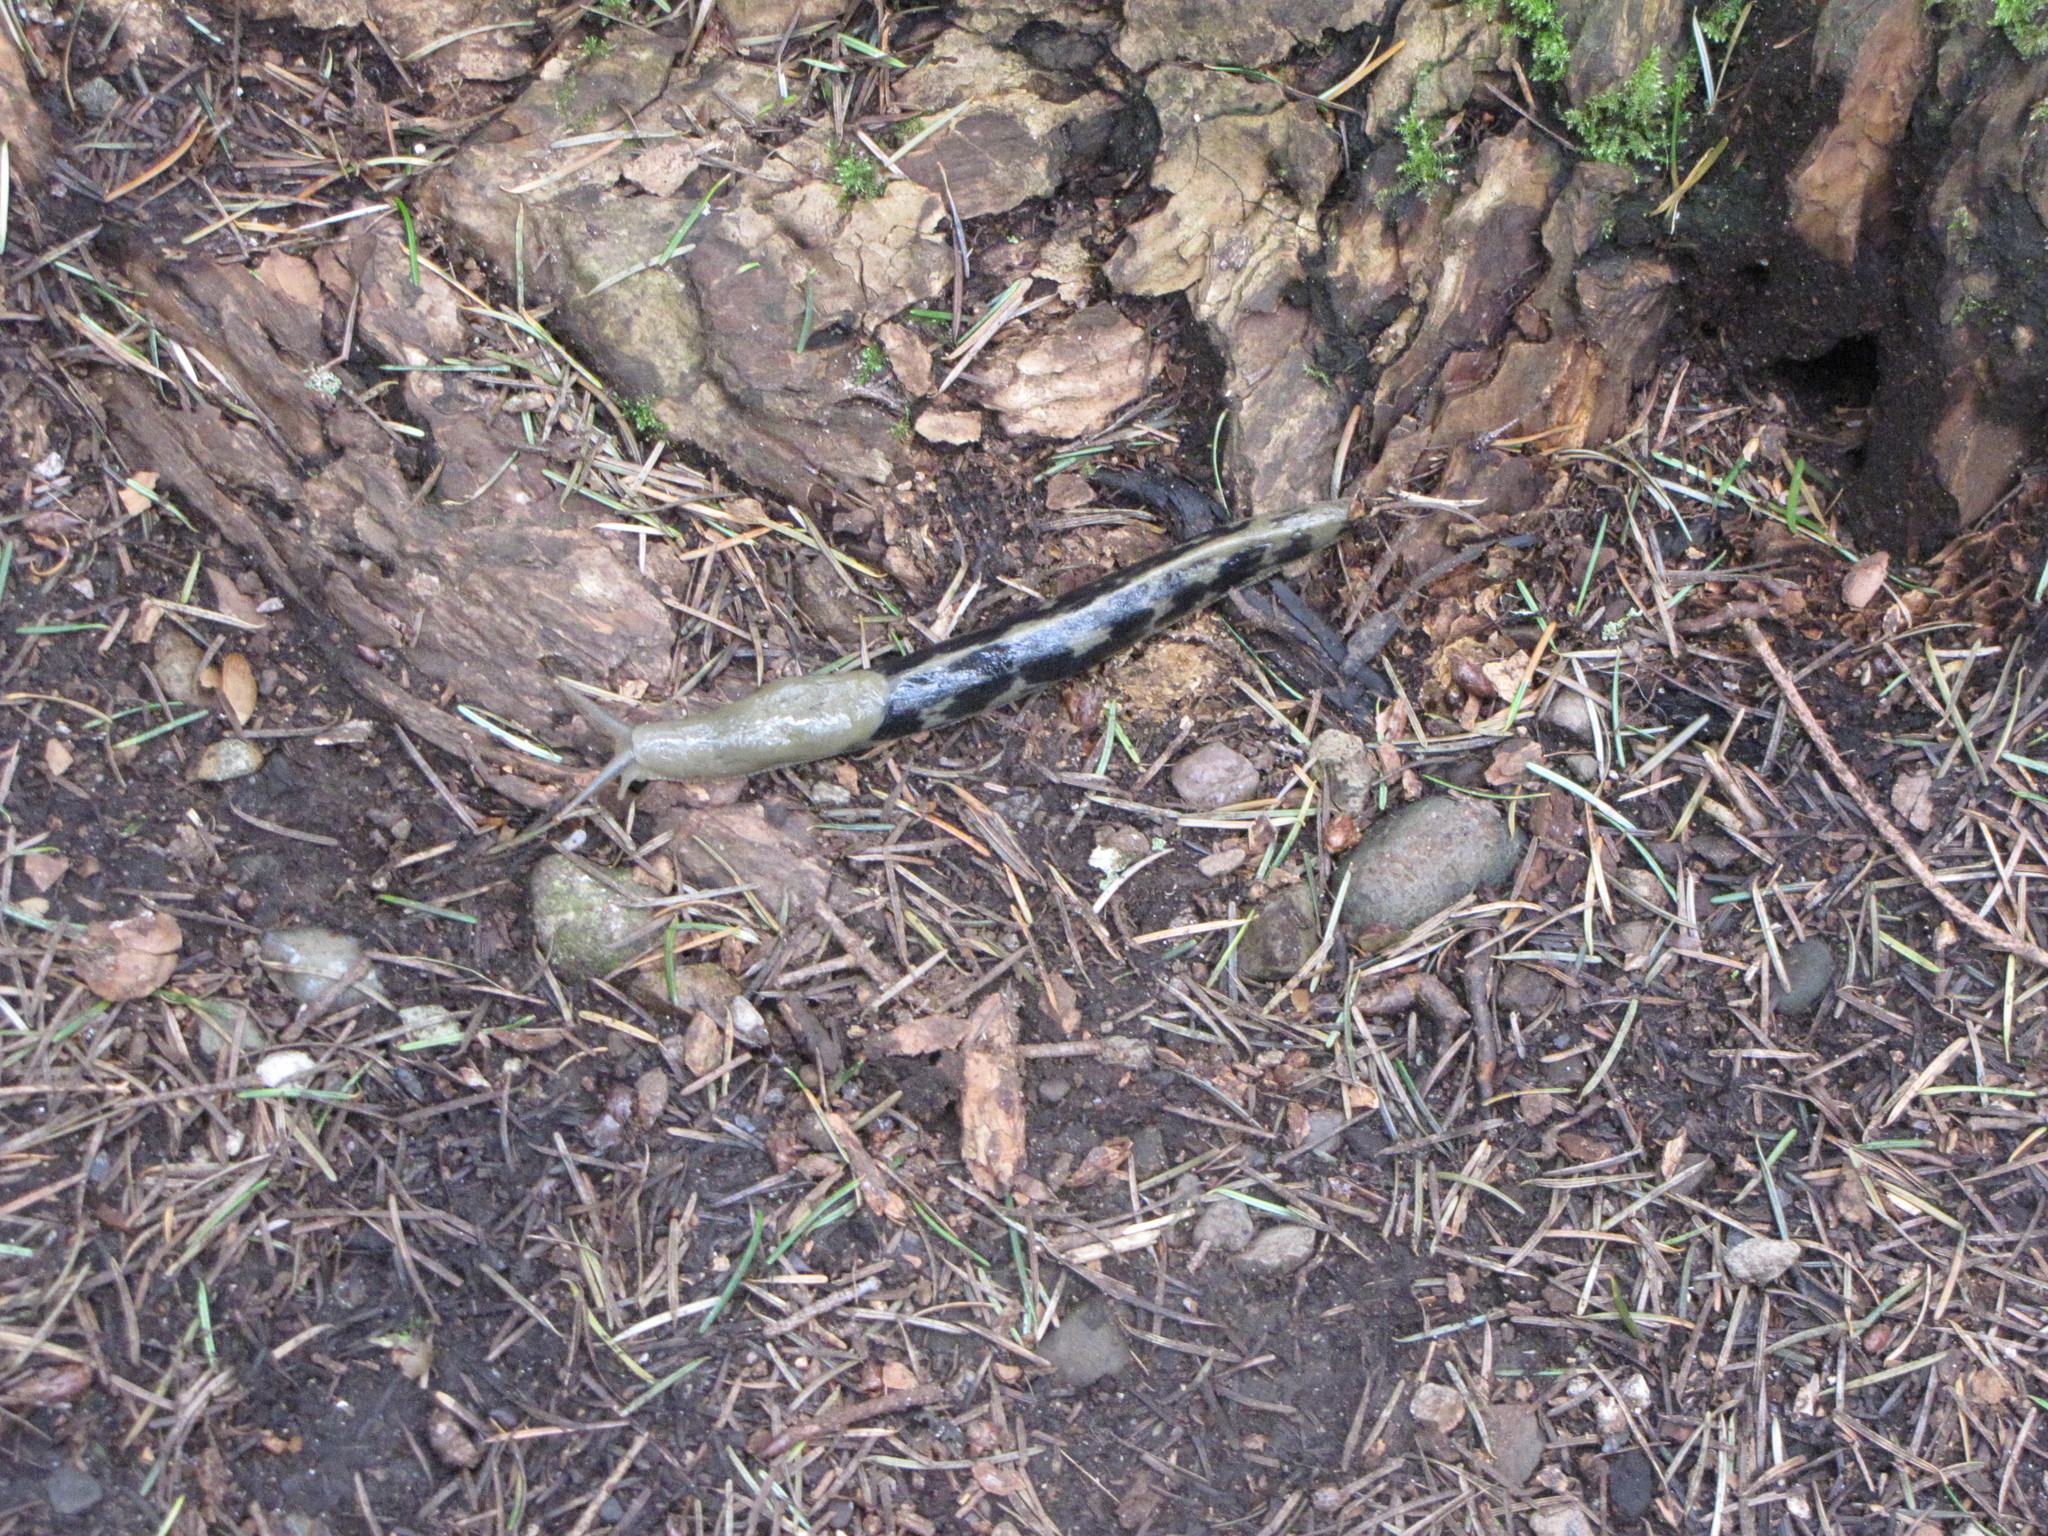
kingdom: Animalia
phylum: Mollusca
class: Gastropoda
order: Stylommatophora
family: Ariolimacidae
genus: Ariolimax
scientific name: Ariolimax columbianus
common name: Pacific banana slug
